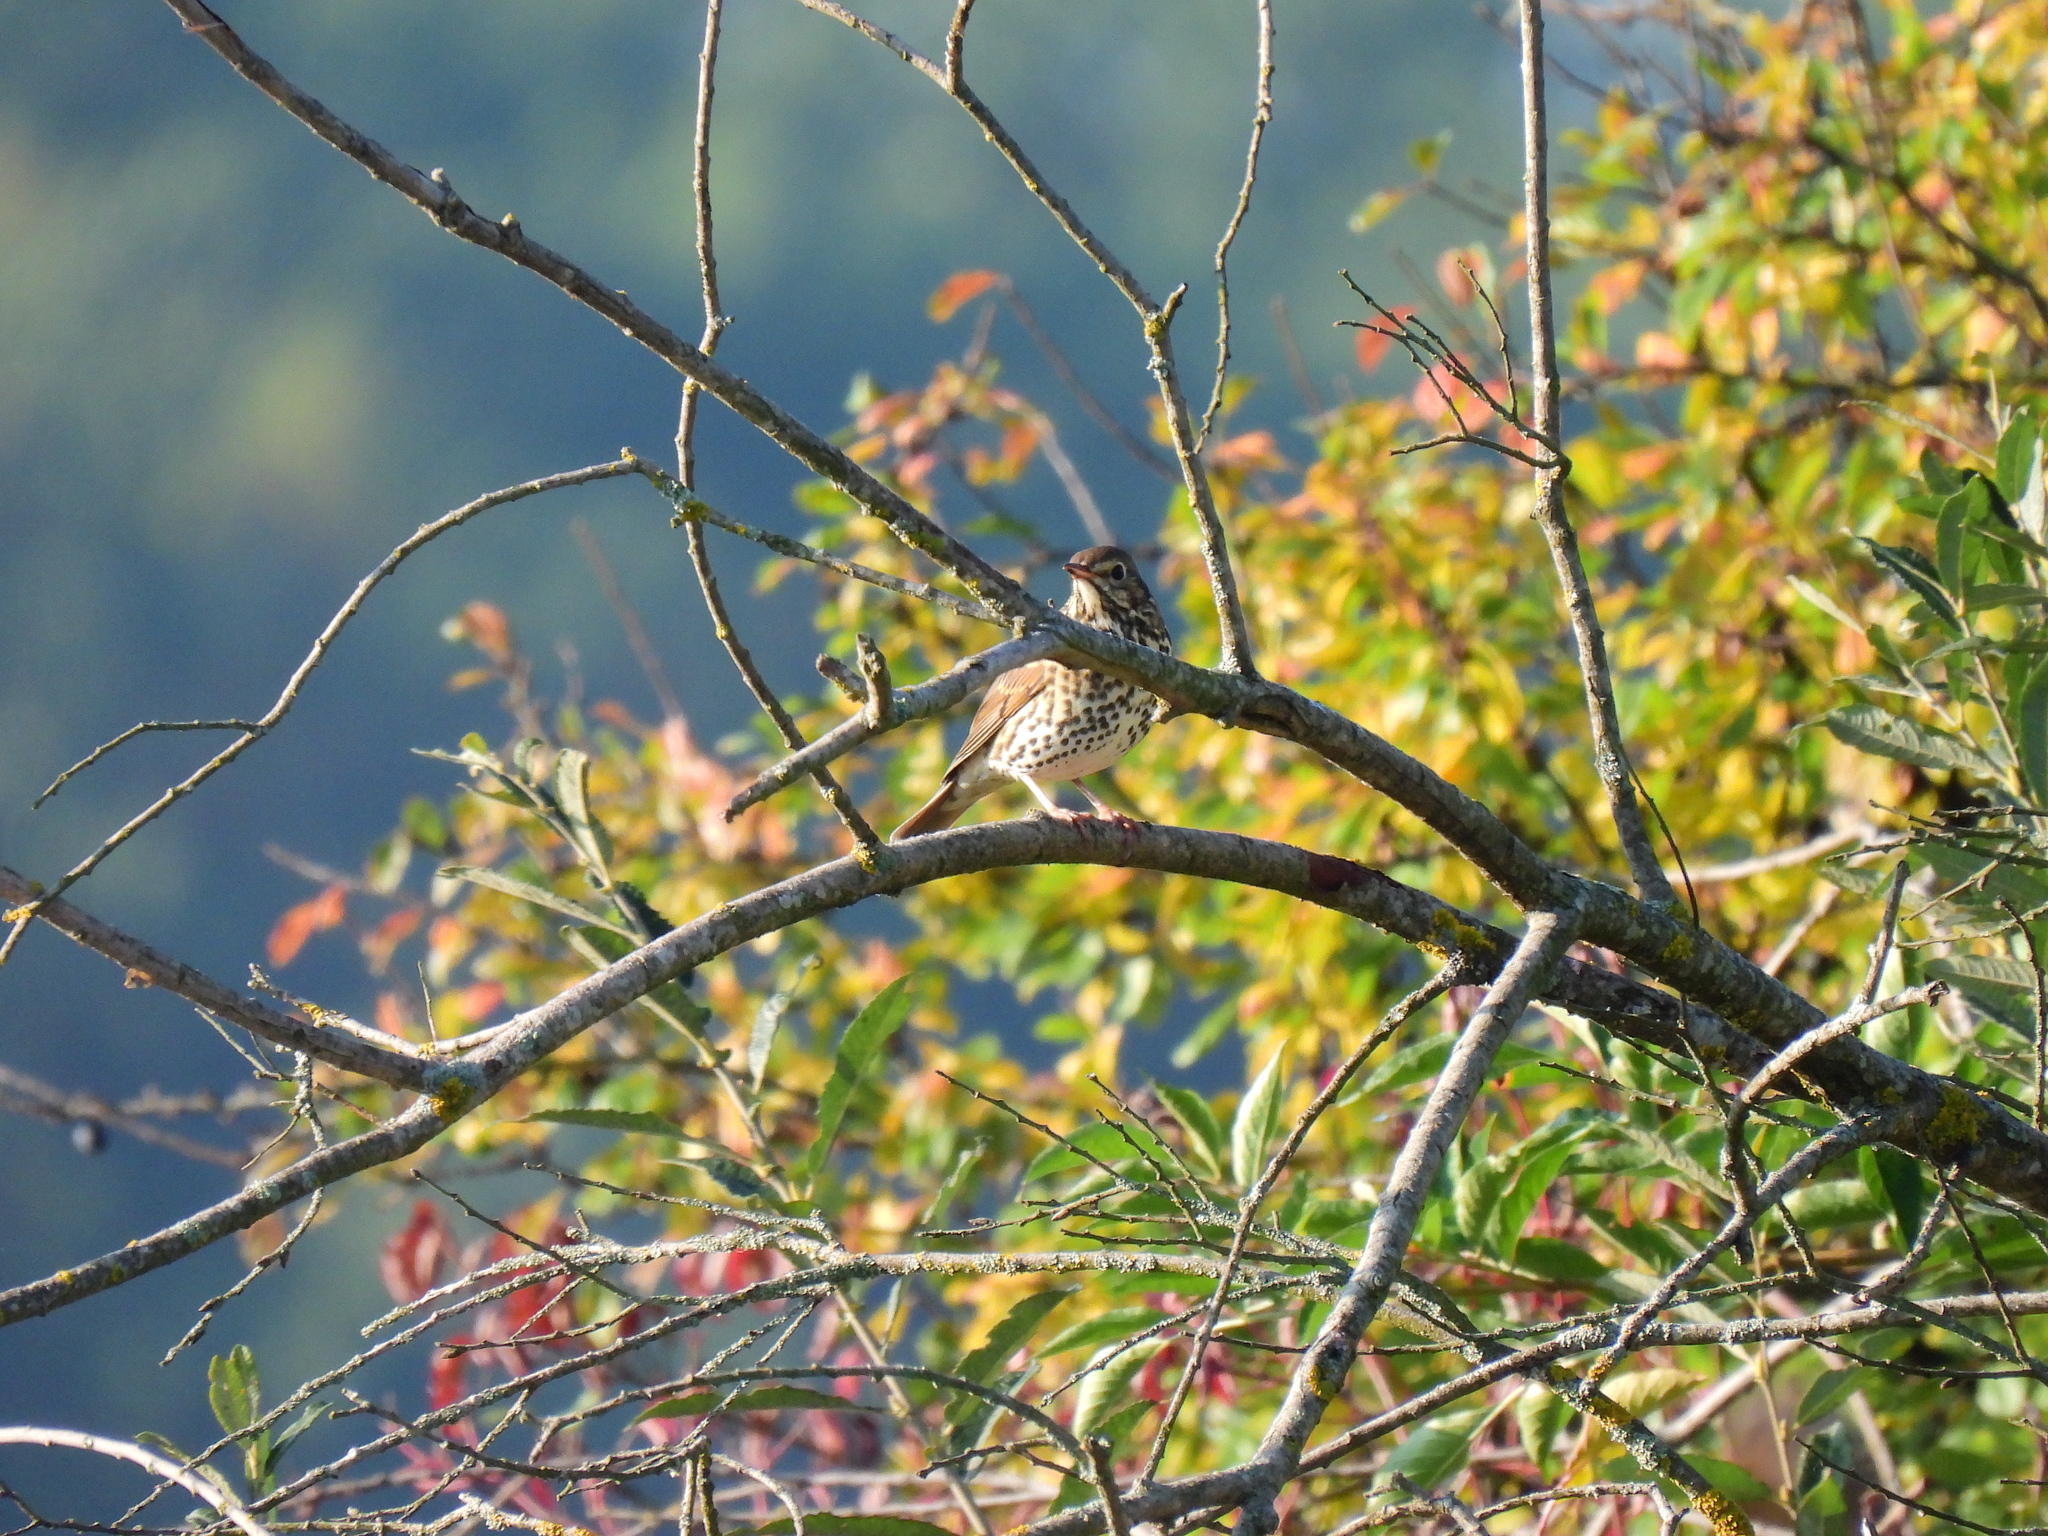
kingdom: Animalia
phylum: Chordata
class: Aves
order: Passeriformes
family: Turdidae
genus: Turdus
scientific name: Turdus philomelos
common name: Song thrush
